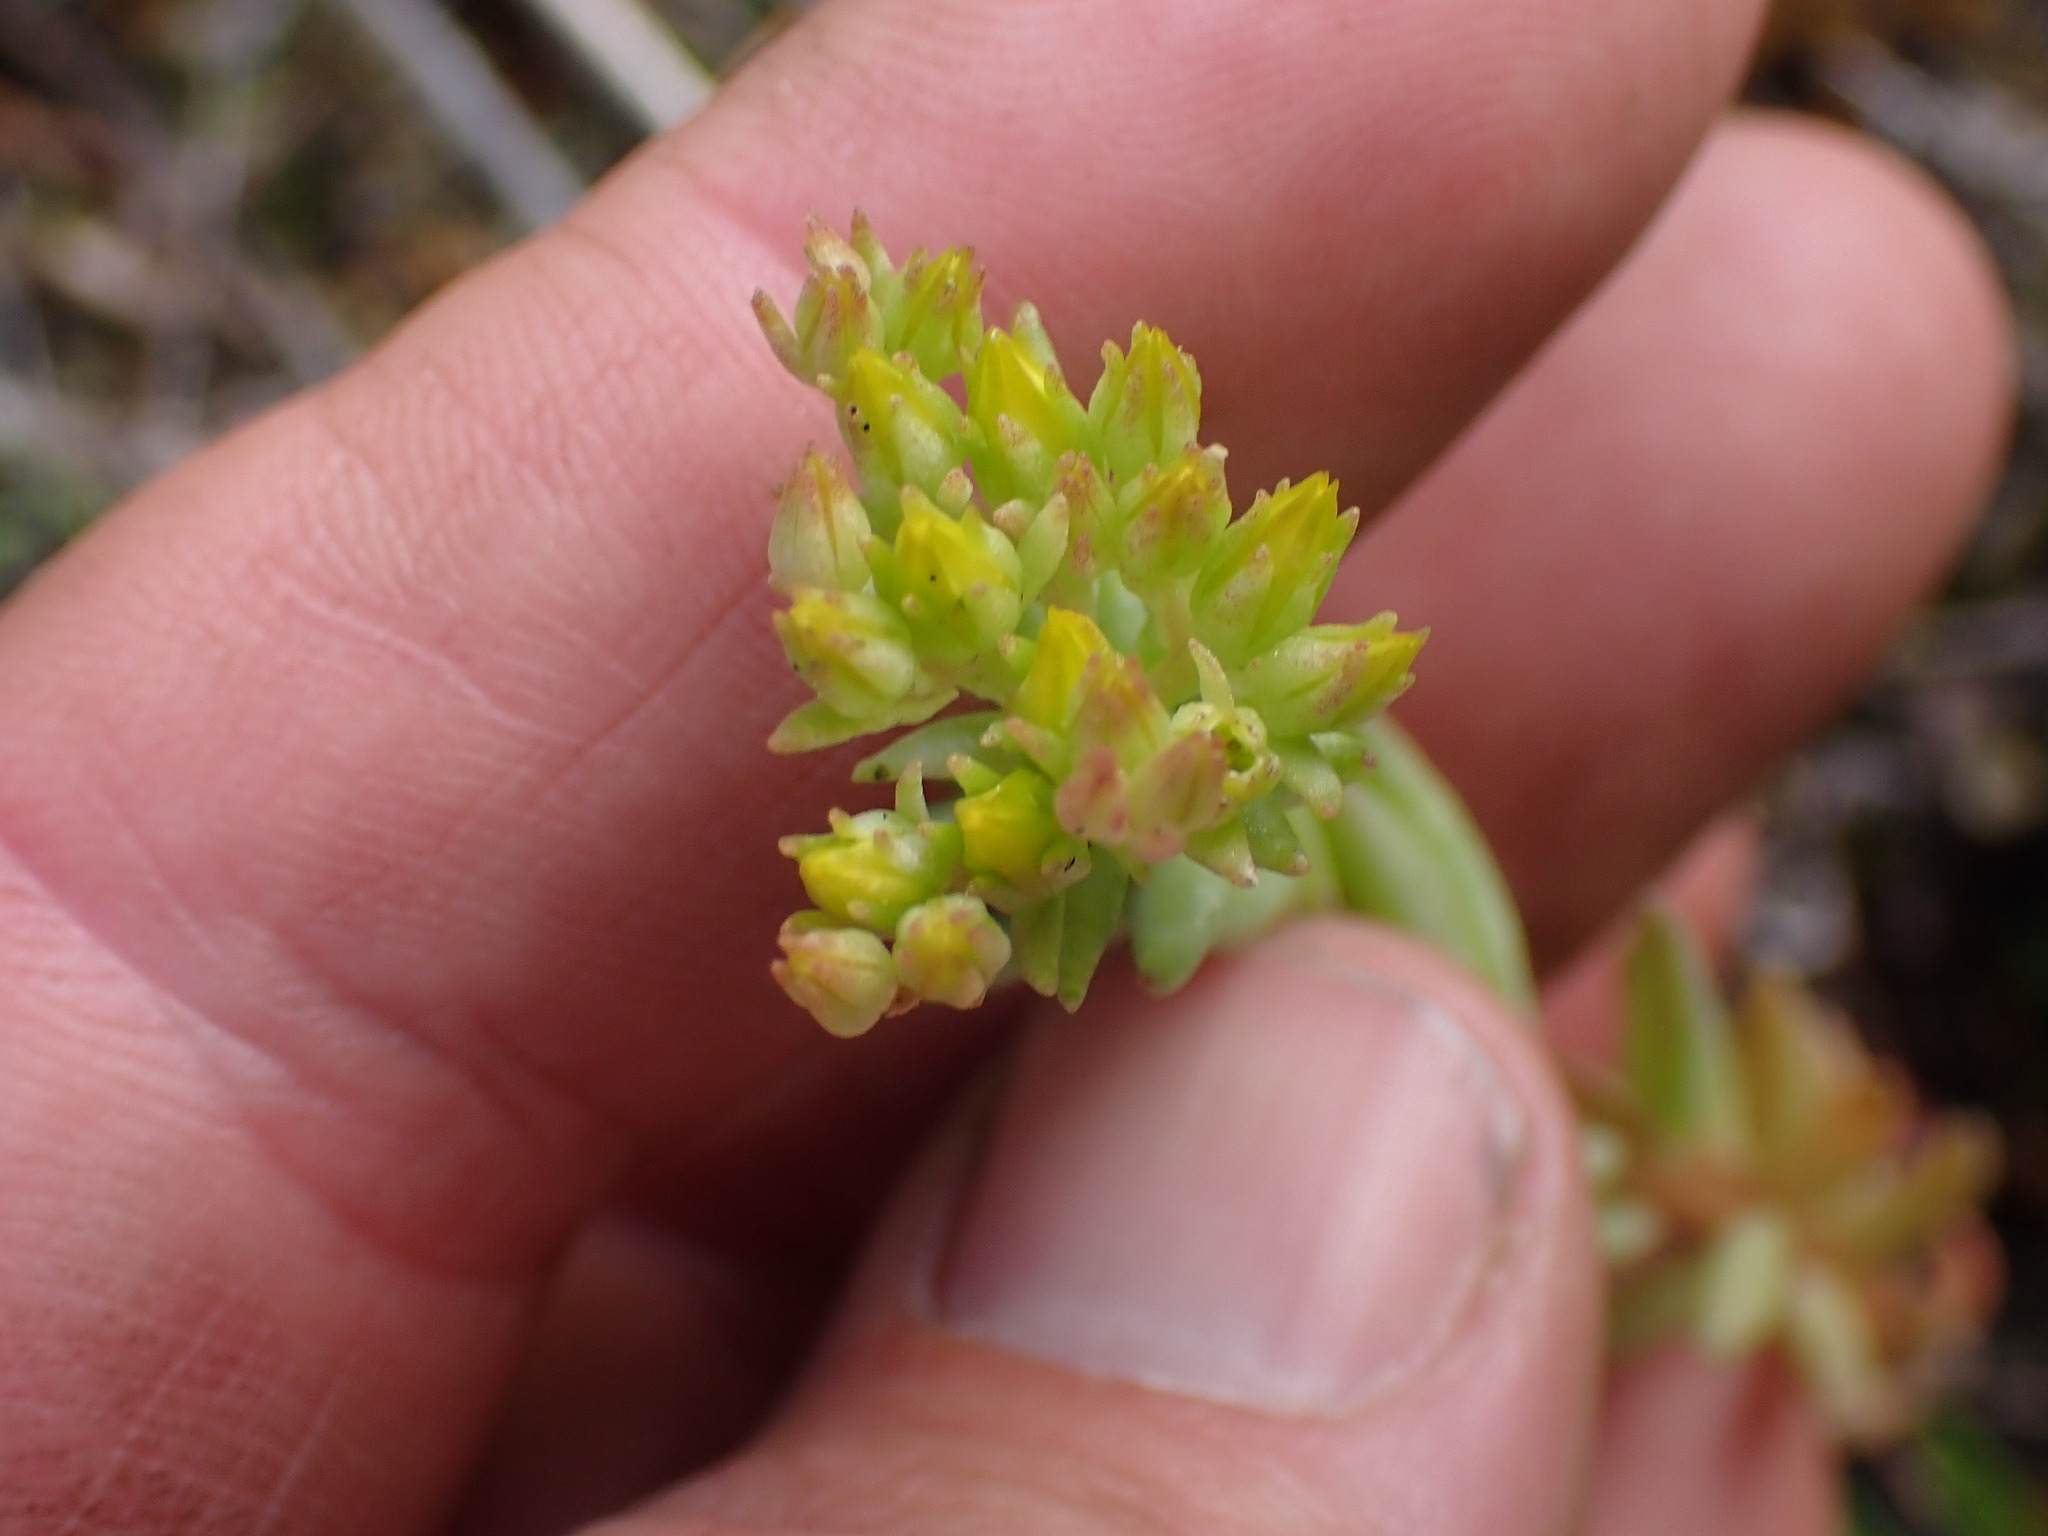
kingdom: Plantae
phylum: Tracheophyta
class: Magnoliopsida
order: Saxifragales
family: Crassulaceae
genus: Sedum
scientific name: Sedum lanceolatum
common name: Common stonecrop
